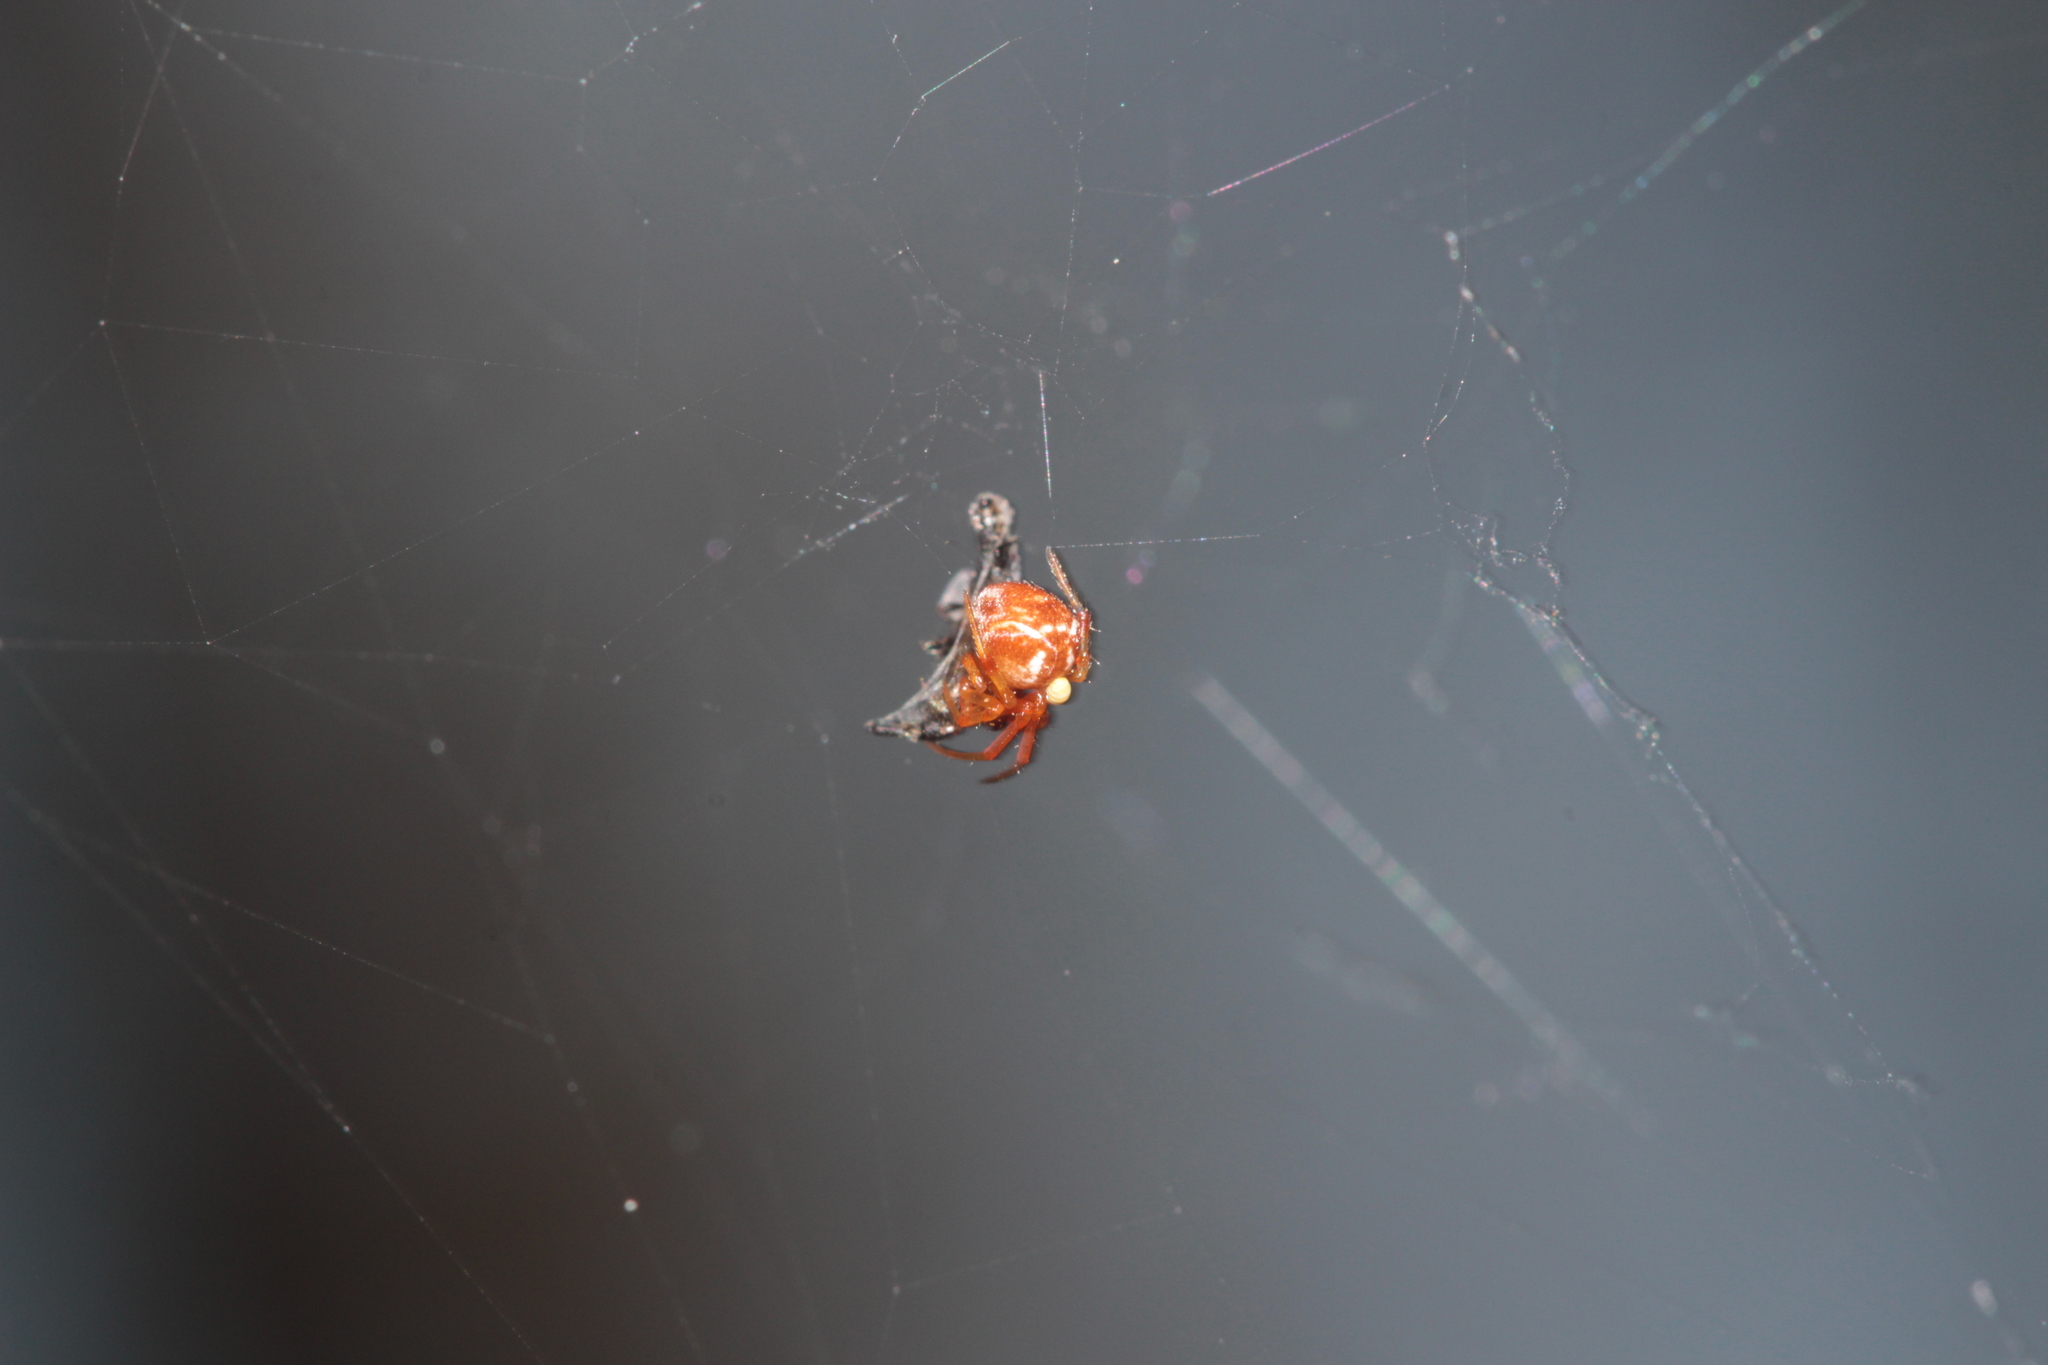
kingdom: Animalia
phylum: Arthropoda
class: Arachnida
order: Araneae
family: Theridiidae
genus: Parasteatoda
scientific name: Parasteatoda lunata
